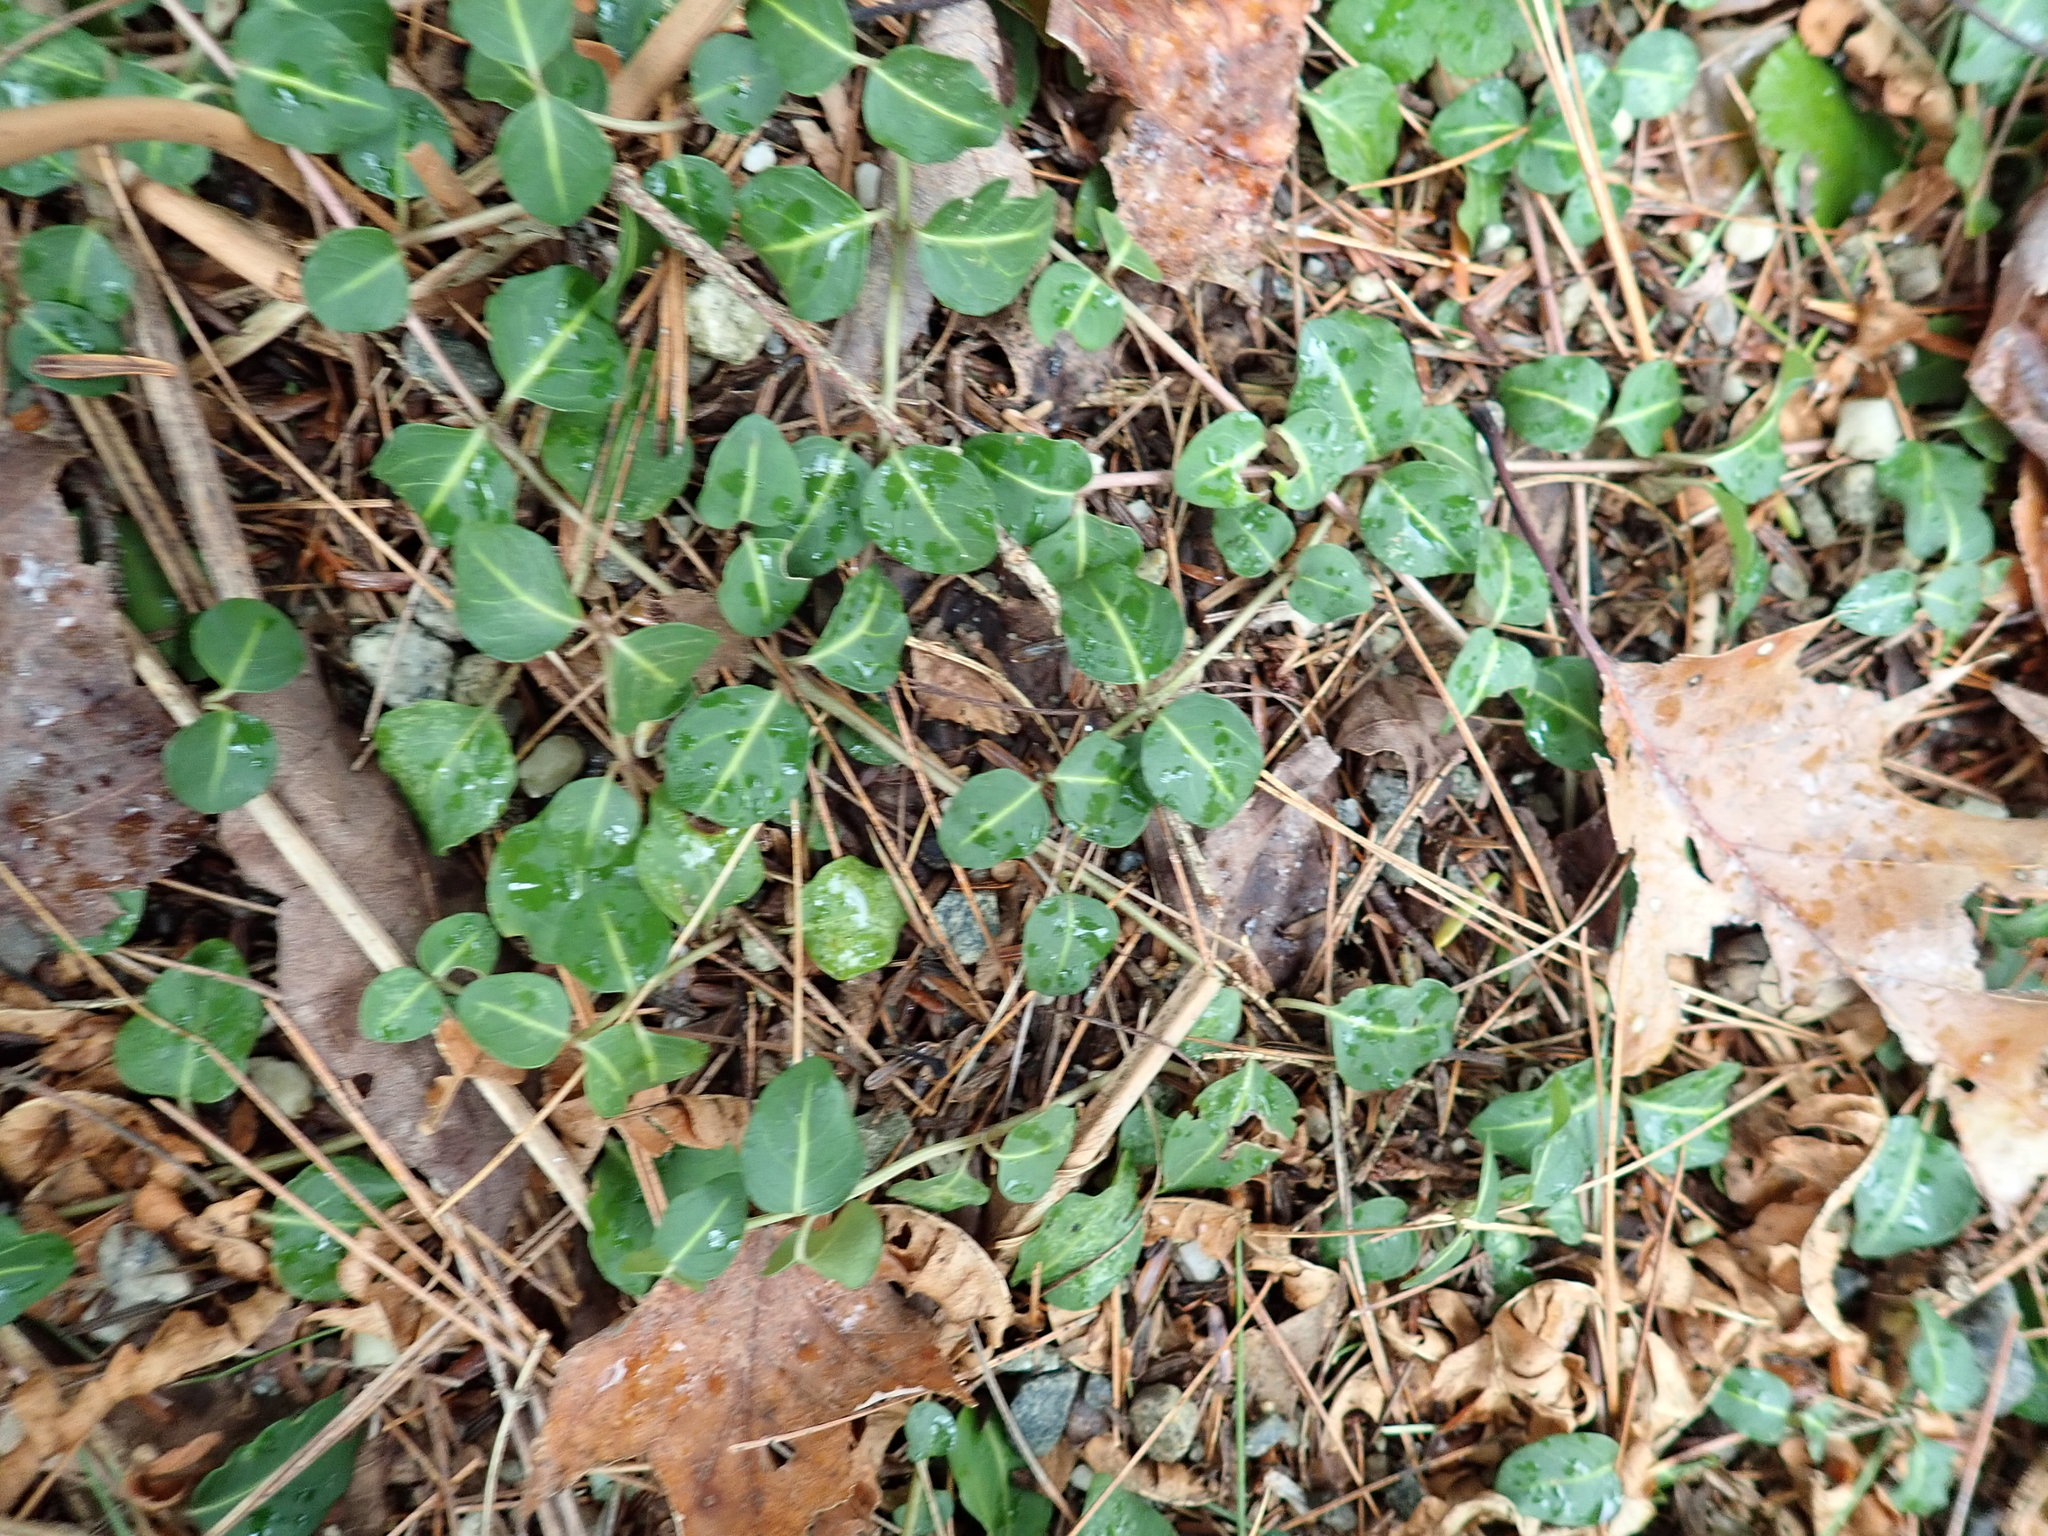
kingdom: Plantae
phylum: Tracheophyta
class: Magnoliopsida
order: Gentianales
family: Rubiaceae
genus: Mitchella
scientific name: Mitchella repens
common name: Partridge-berry
